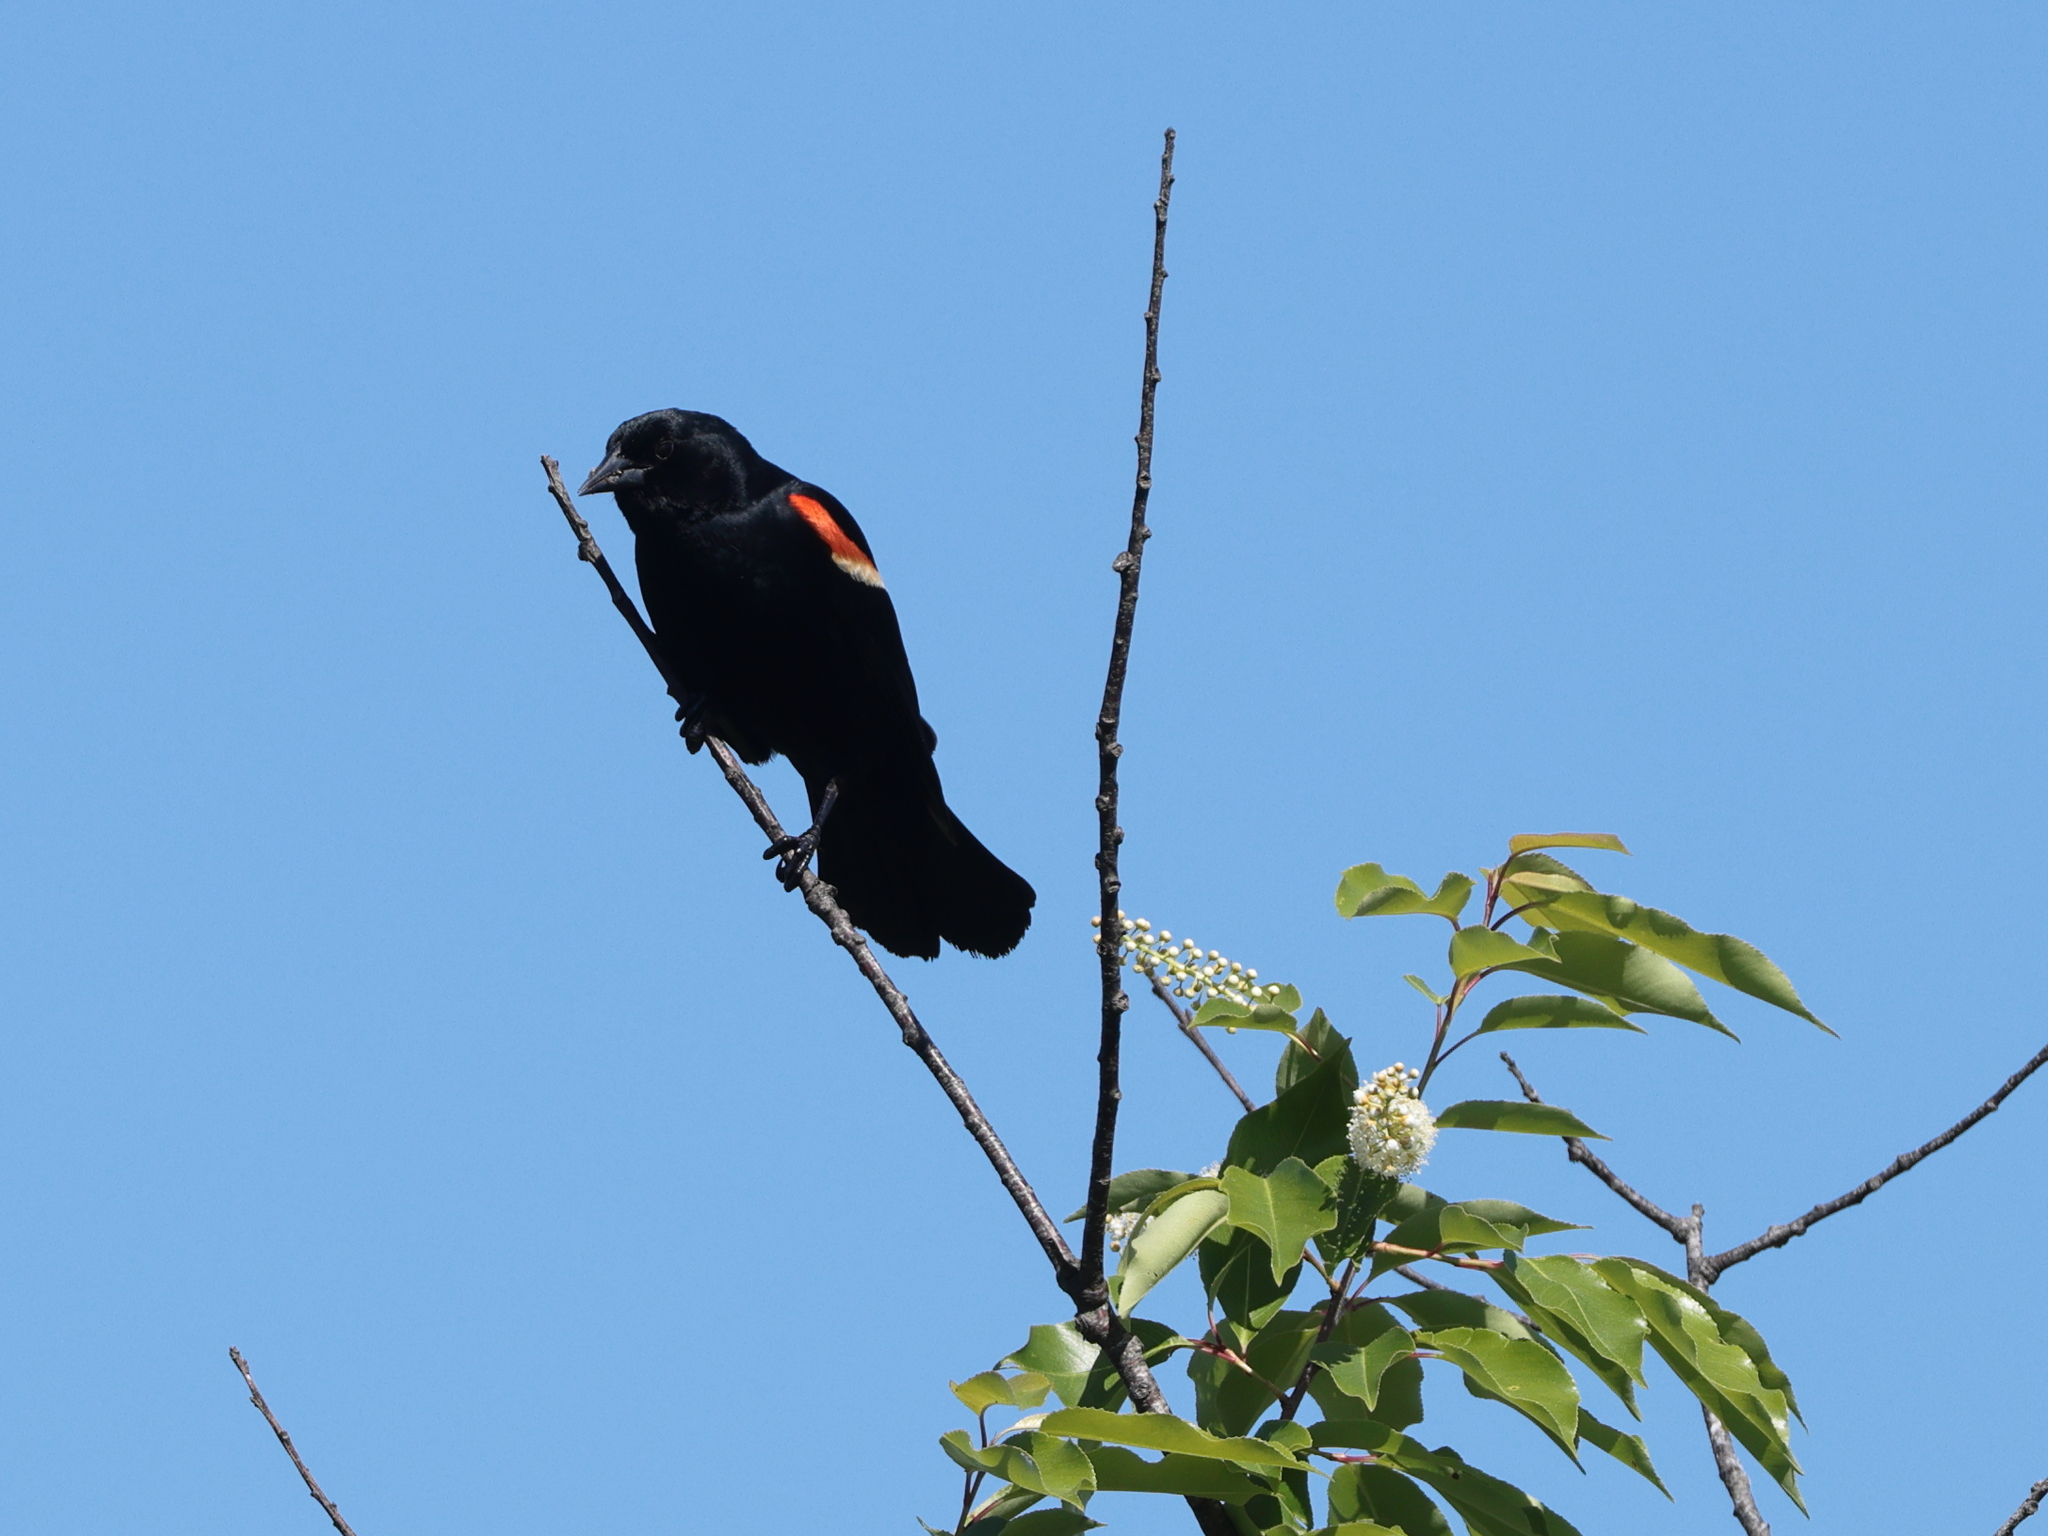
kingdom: Animalia
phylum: Chordata
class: Aves
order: Passeriformes
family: Icteridae
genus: Agelaius
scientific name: Agelaius phoeniceus
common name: Red-winged blackbird
